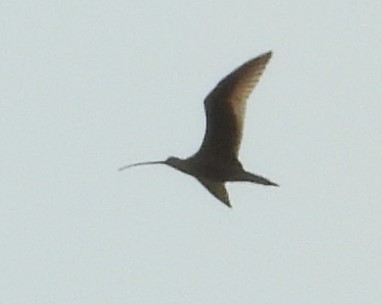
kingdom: Animalia
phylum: Chordata
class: Aves
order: Charadriiformes
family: Scolopacidae
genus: Numenius
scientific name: Numenius americanus
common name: Long-billed curlew
